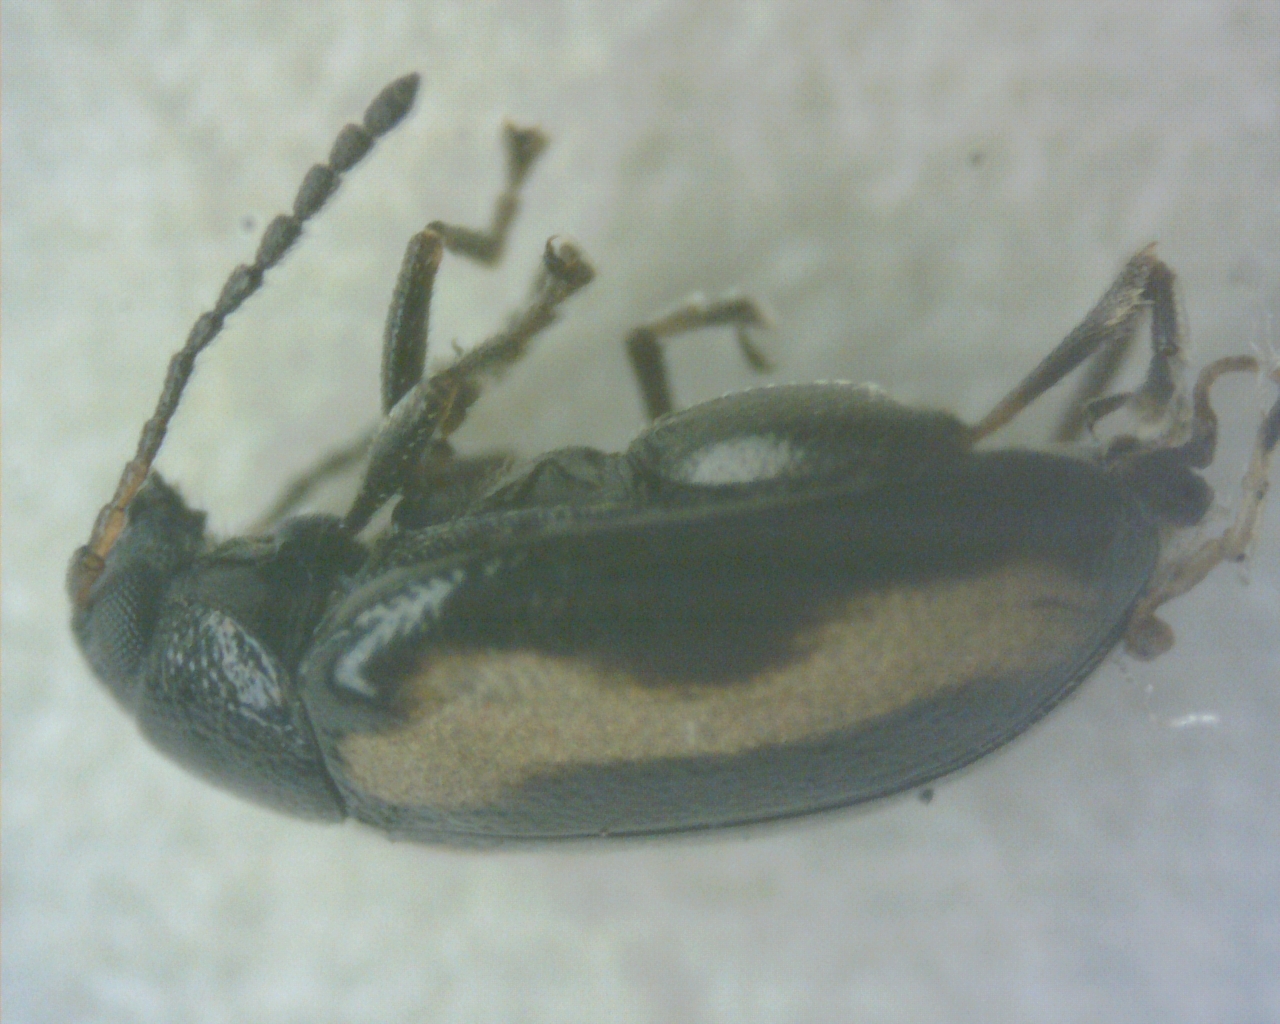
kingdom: Animalia
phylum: Arthropoda
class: Insecta
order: Coleoptera
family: Chrysomelidae
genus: Phyllotreta
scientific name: Phyllotreta striolata
